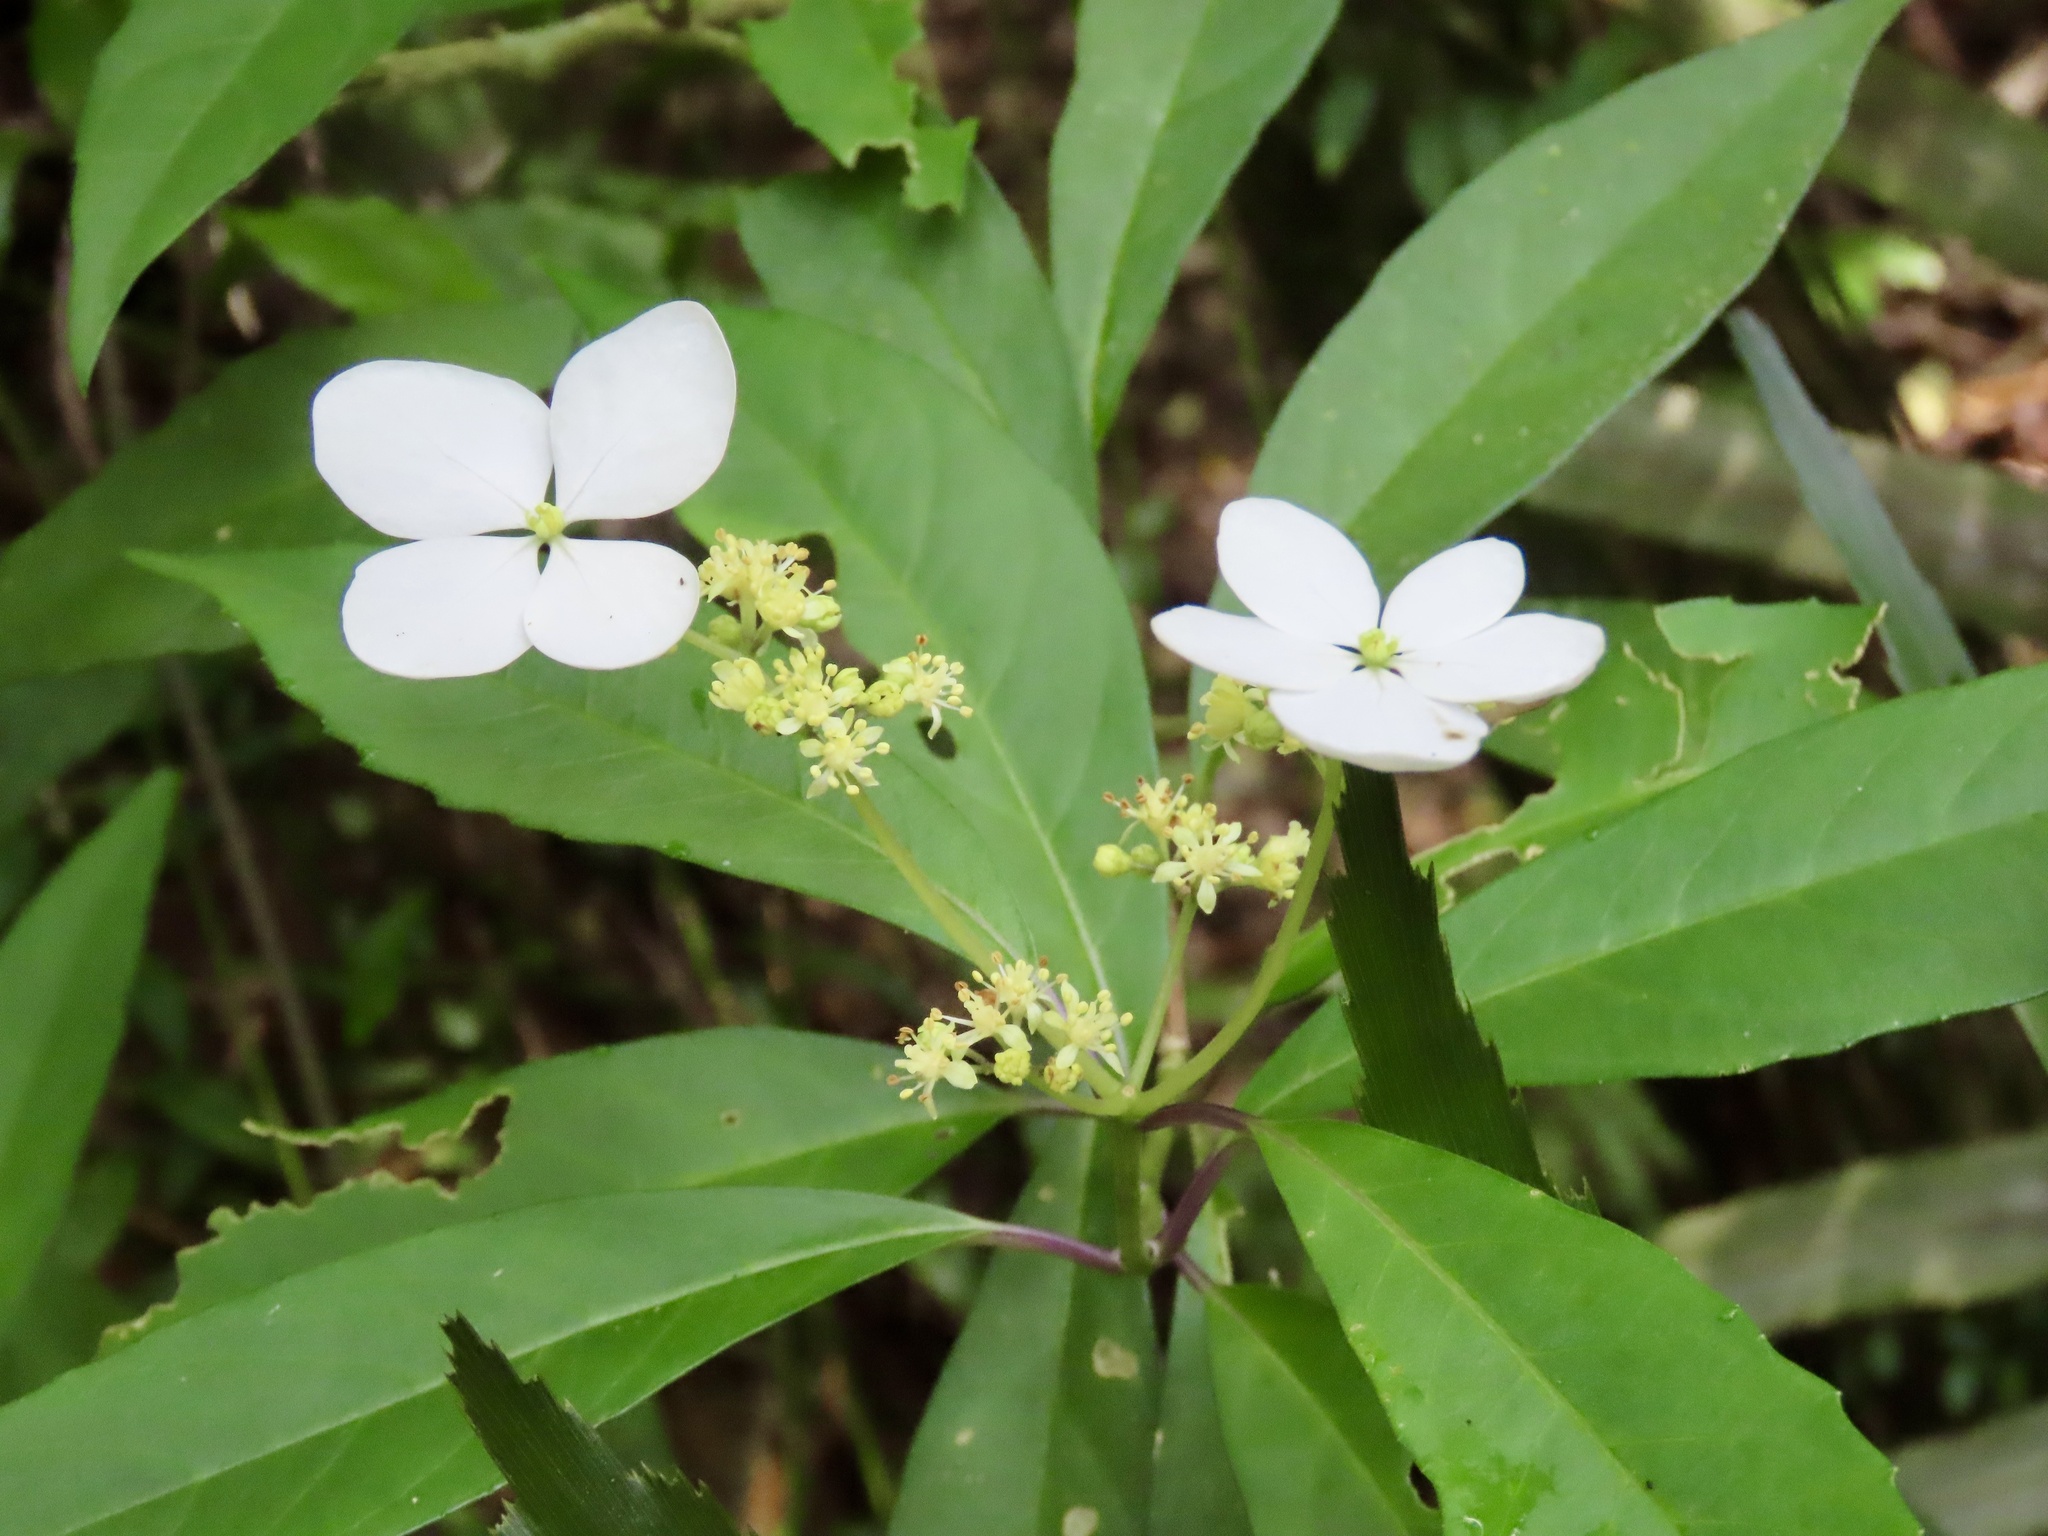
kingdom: Plantae
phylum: Tracheophyta
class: Magnoliopsida
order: Cornales
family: Hydrangeaceae
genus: Hydrangea
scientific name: Hydrangea chinensis
